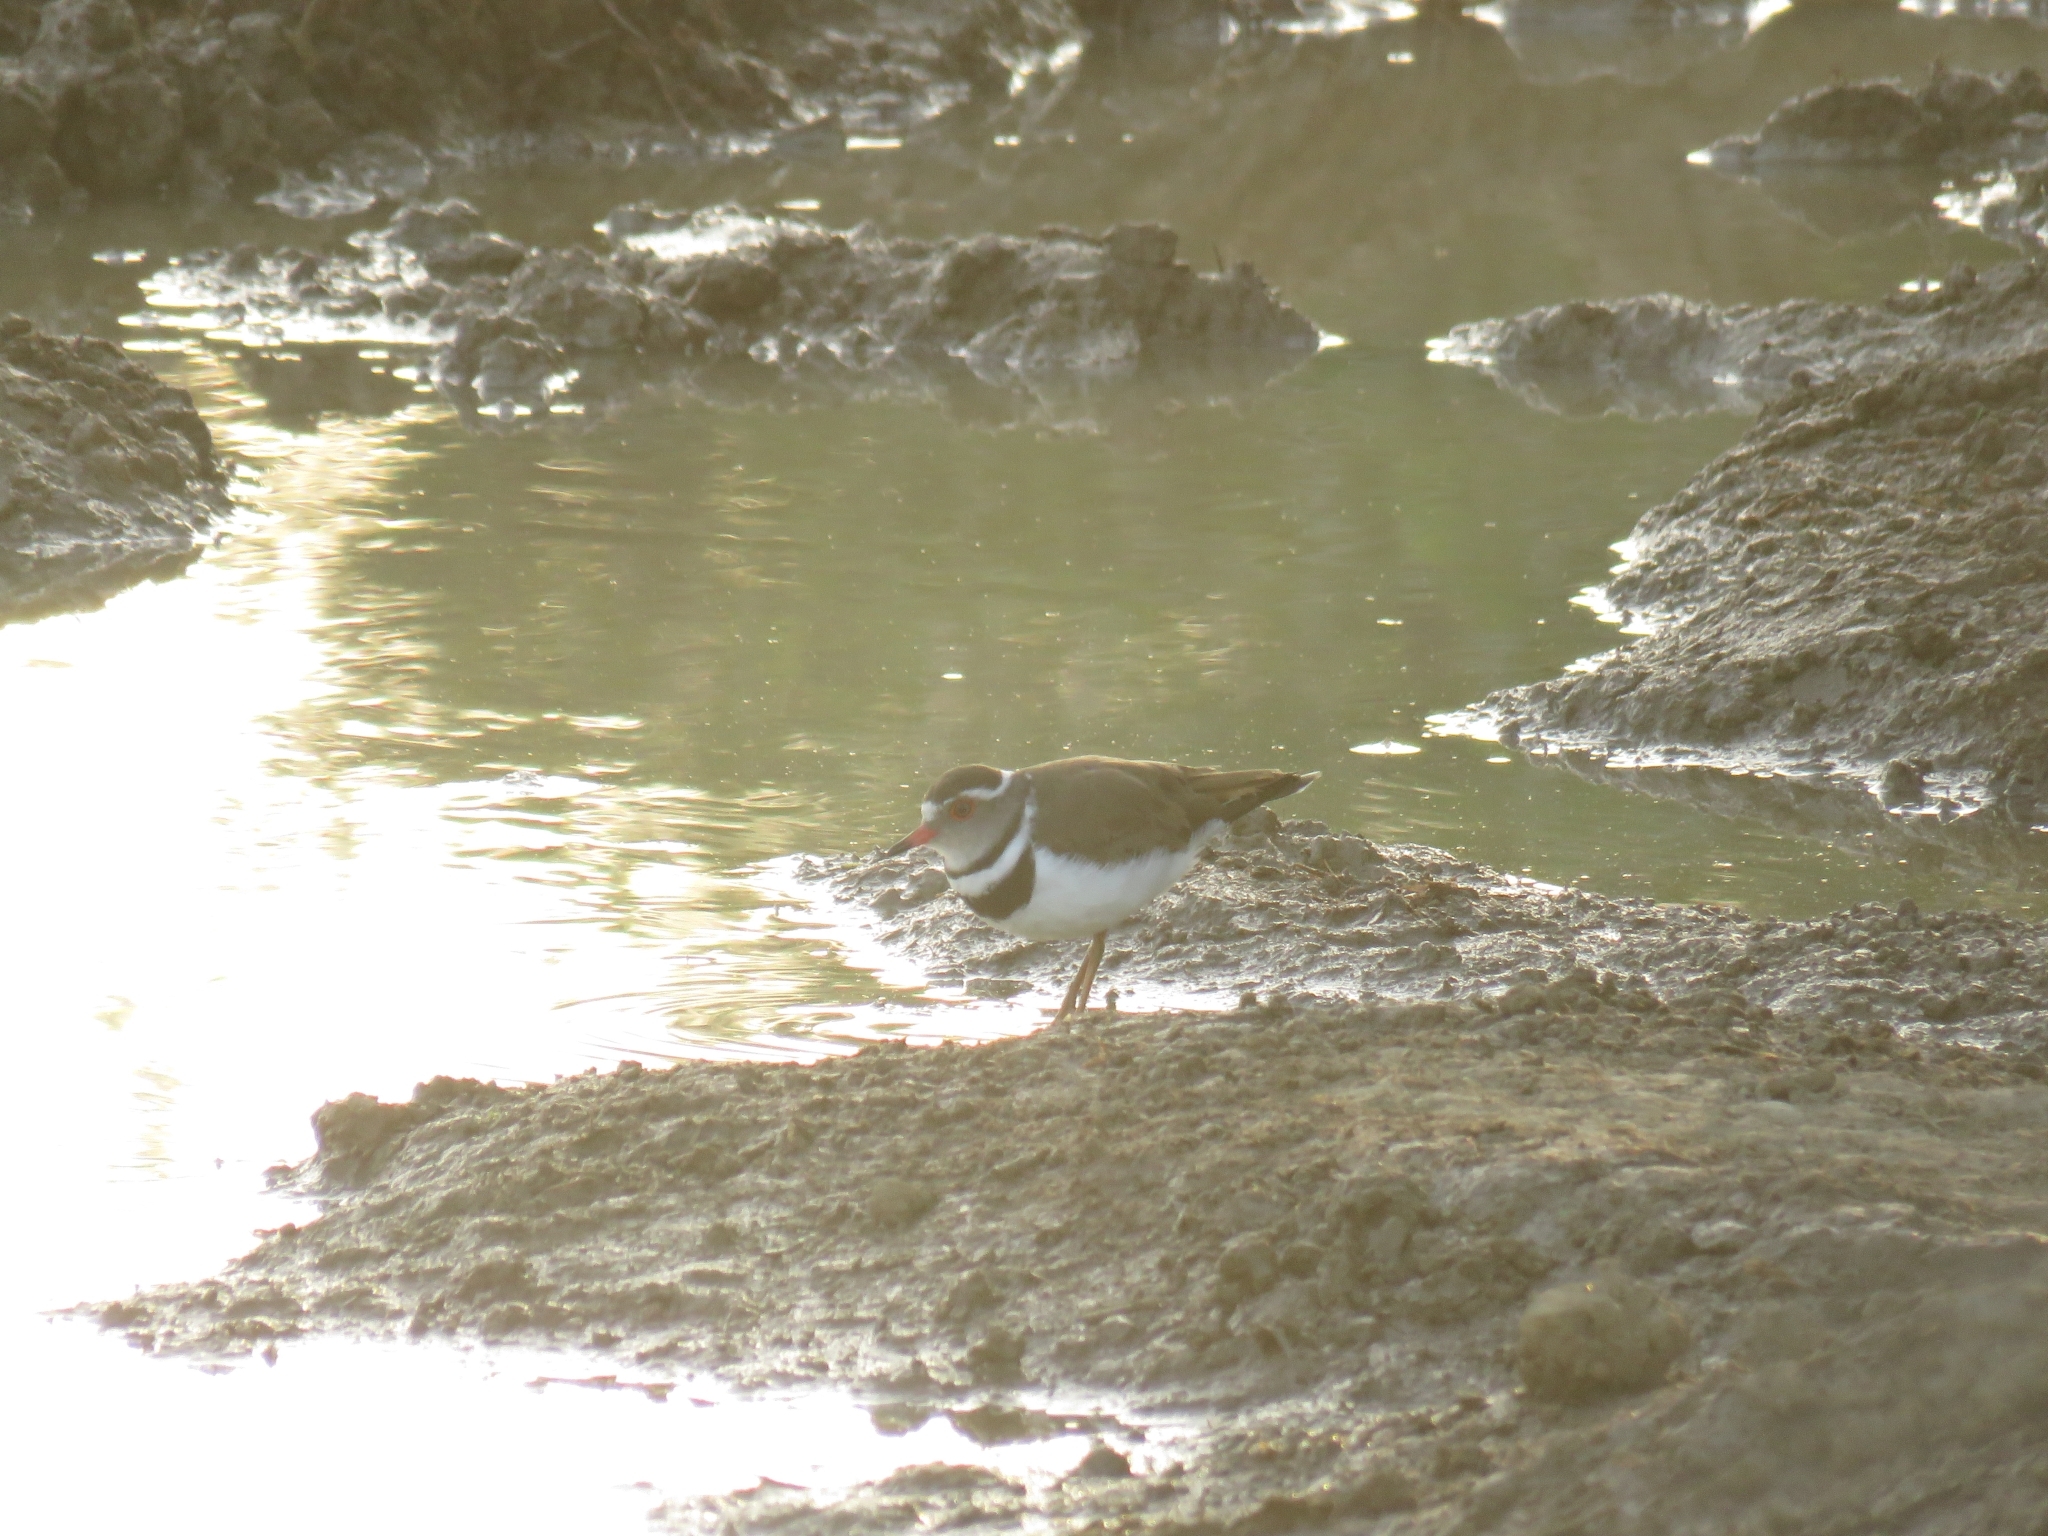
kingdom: Animalia
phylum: Chordata
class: Aves
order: Charadriiformes
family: Charadriidae
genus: Charadrius
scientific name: Charadrius tricollaris
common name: Three-banded plover
